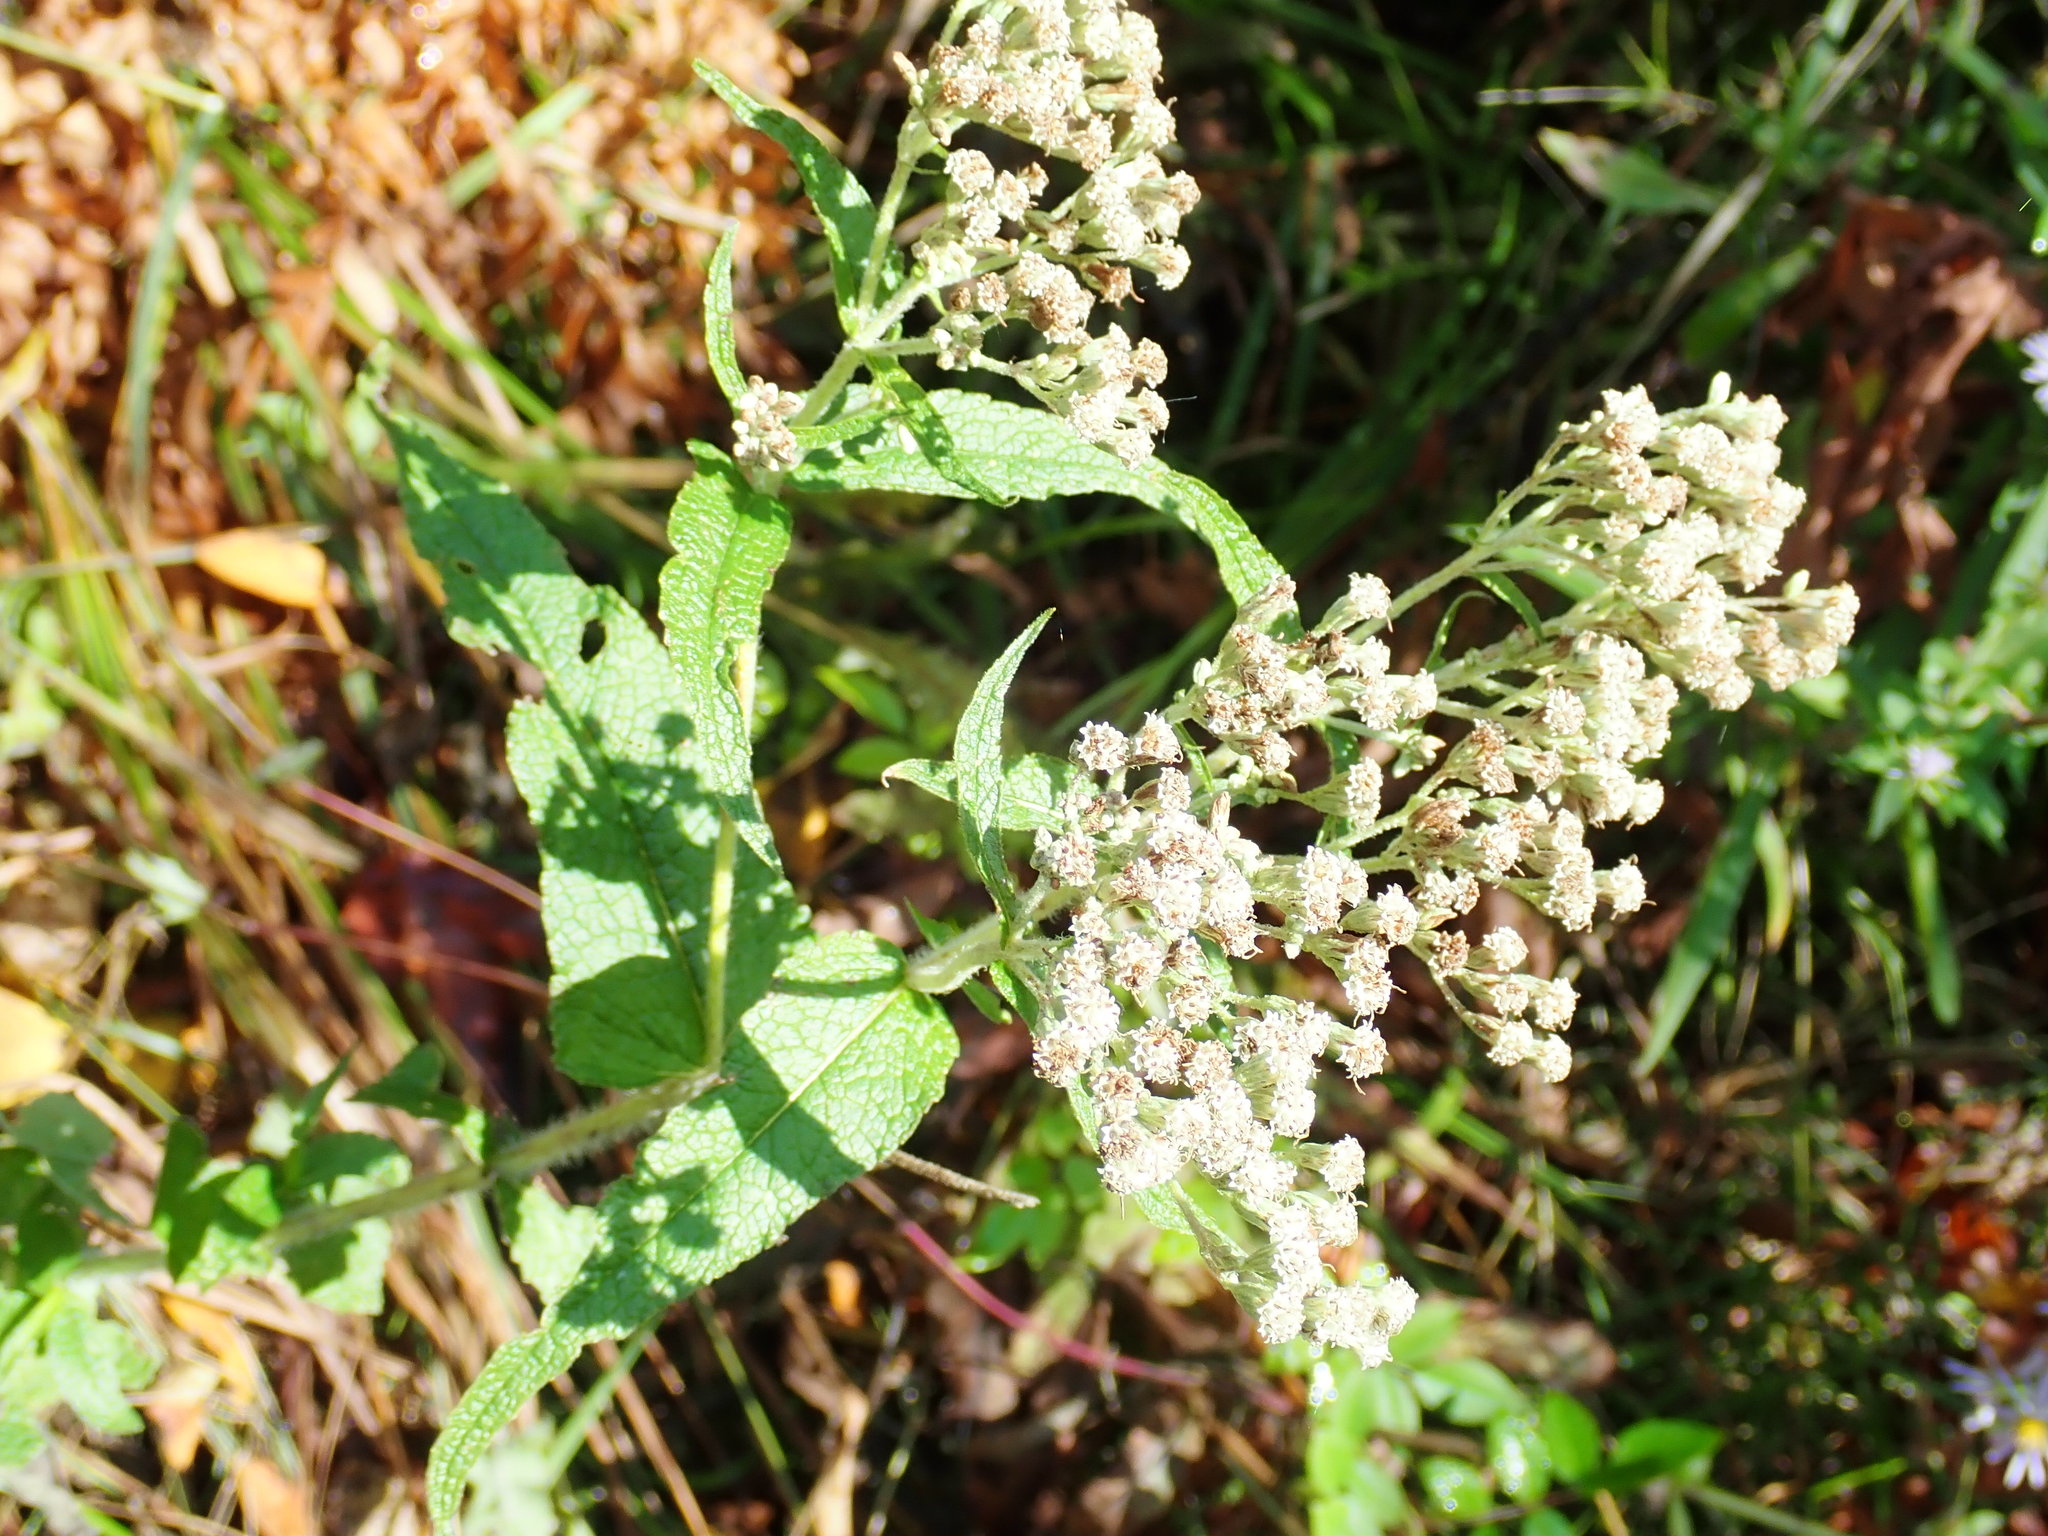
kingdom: Plantae
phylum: Tracheophyta
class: Magnoliopsida
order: Asterales
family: Asteraceae
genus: Eupatorium
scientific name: Eupatorium perfoliatum
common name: Boneset
